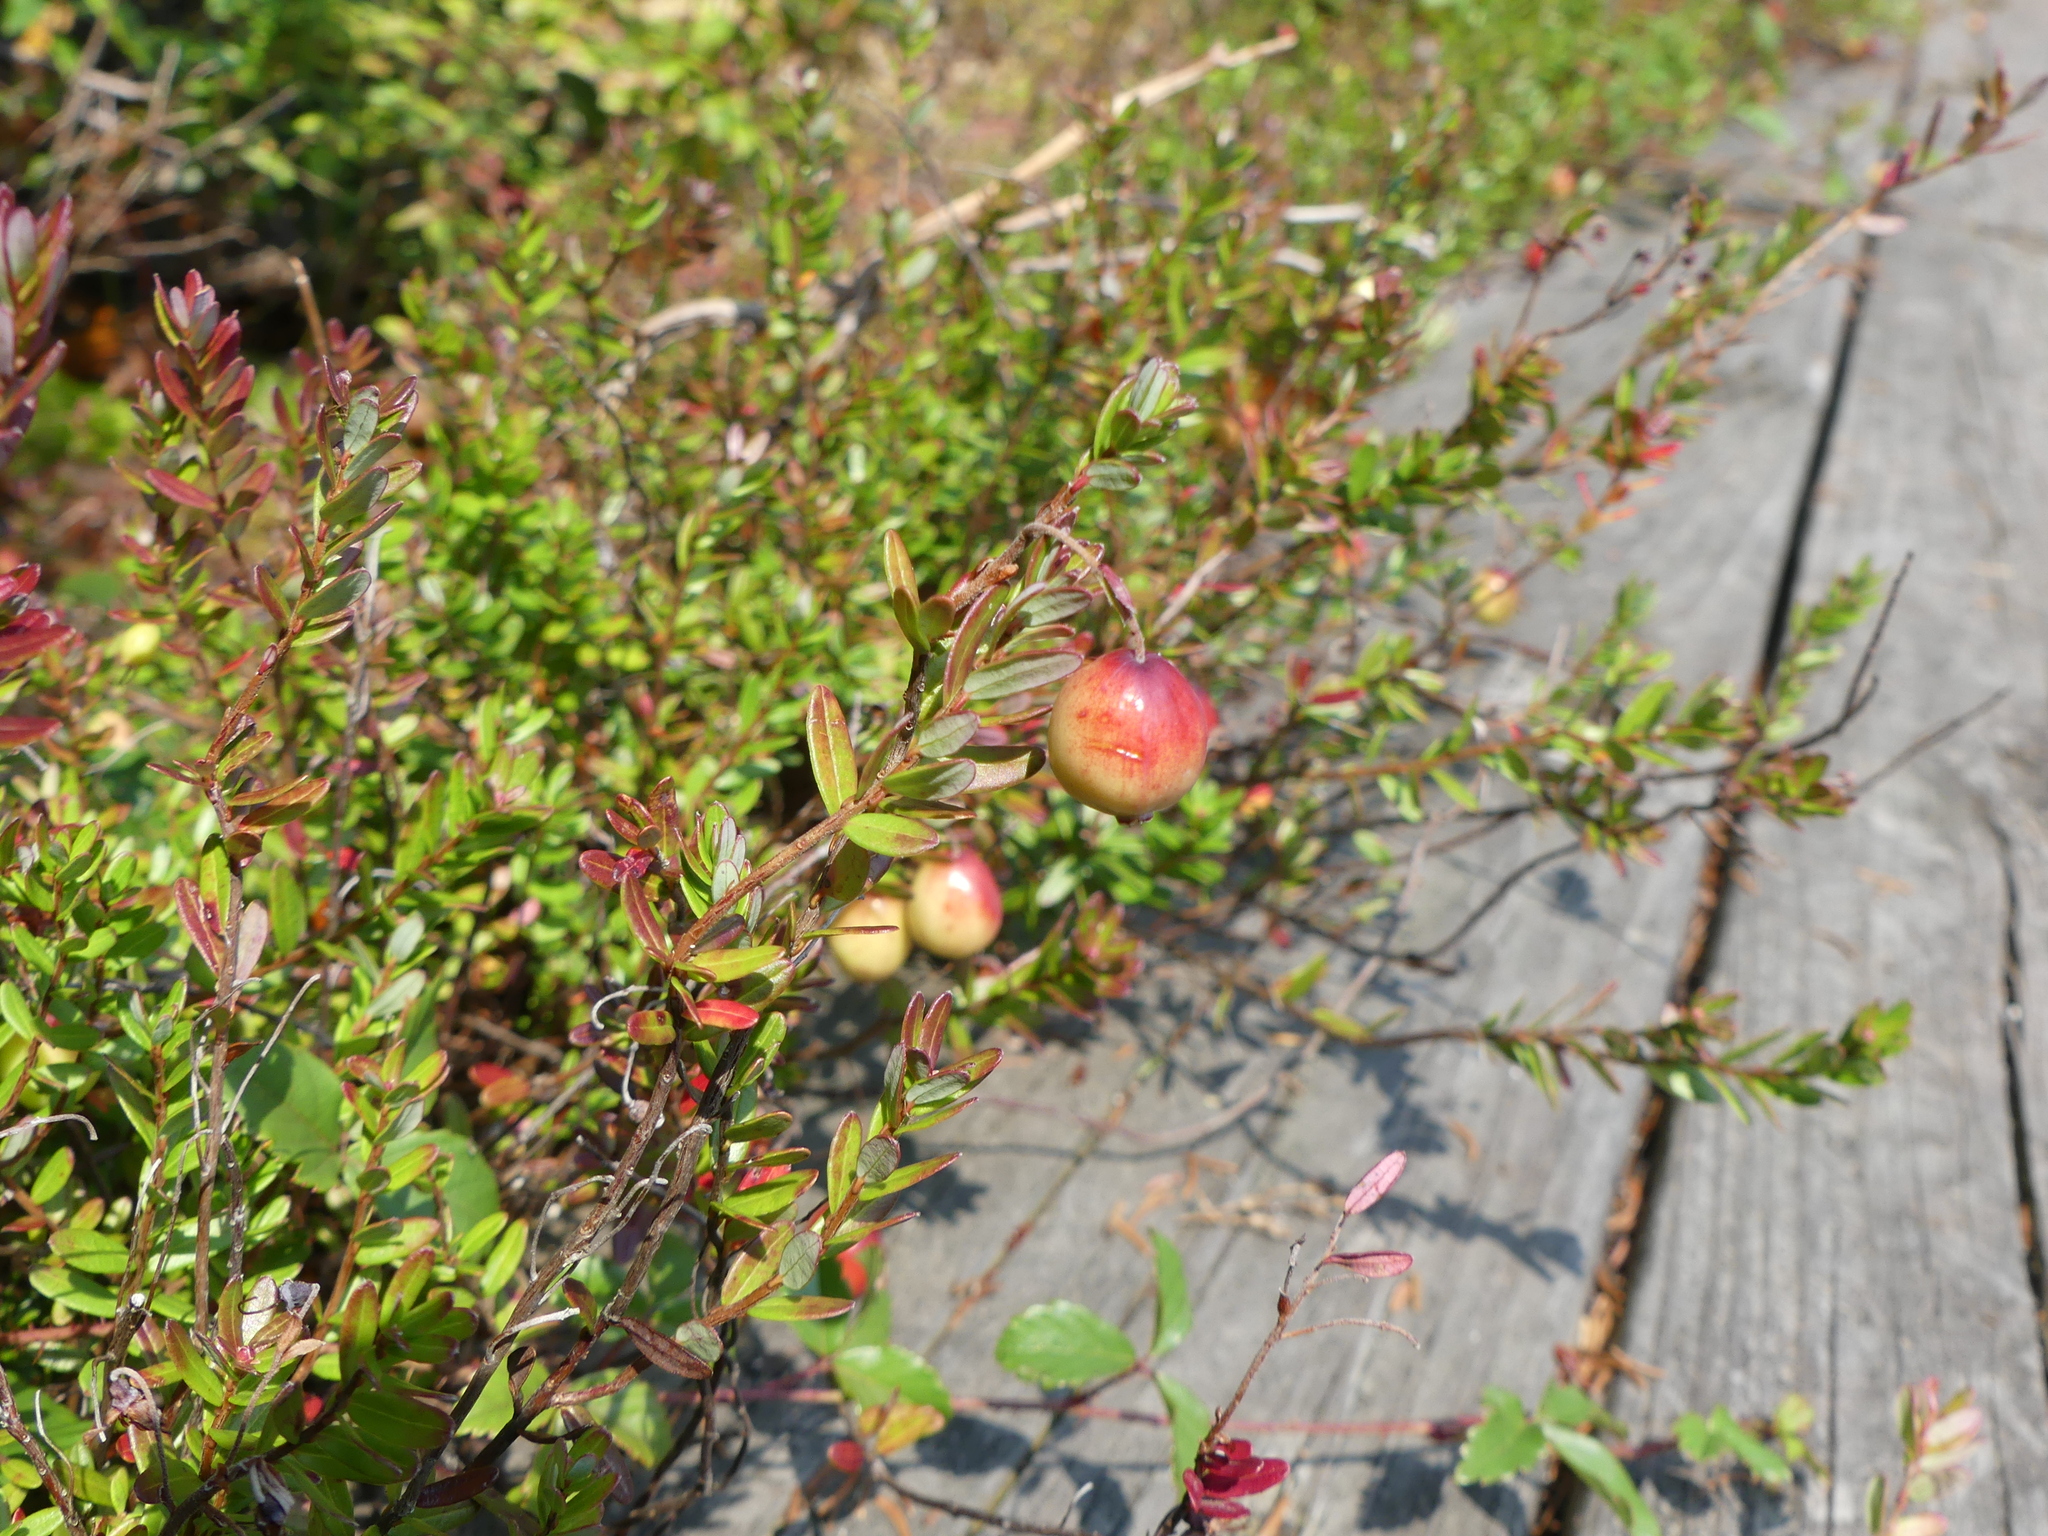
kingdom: Plantae
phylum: Tracheophyta
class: Magnoliopsida
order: Ericales
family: Ericaceae
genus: Vaccinium
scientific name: Vaccinium macrocarpon
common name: American cranberry
